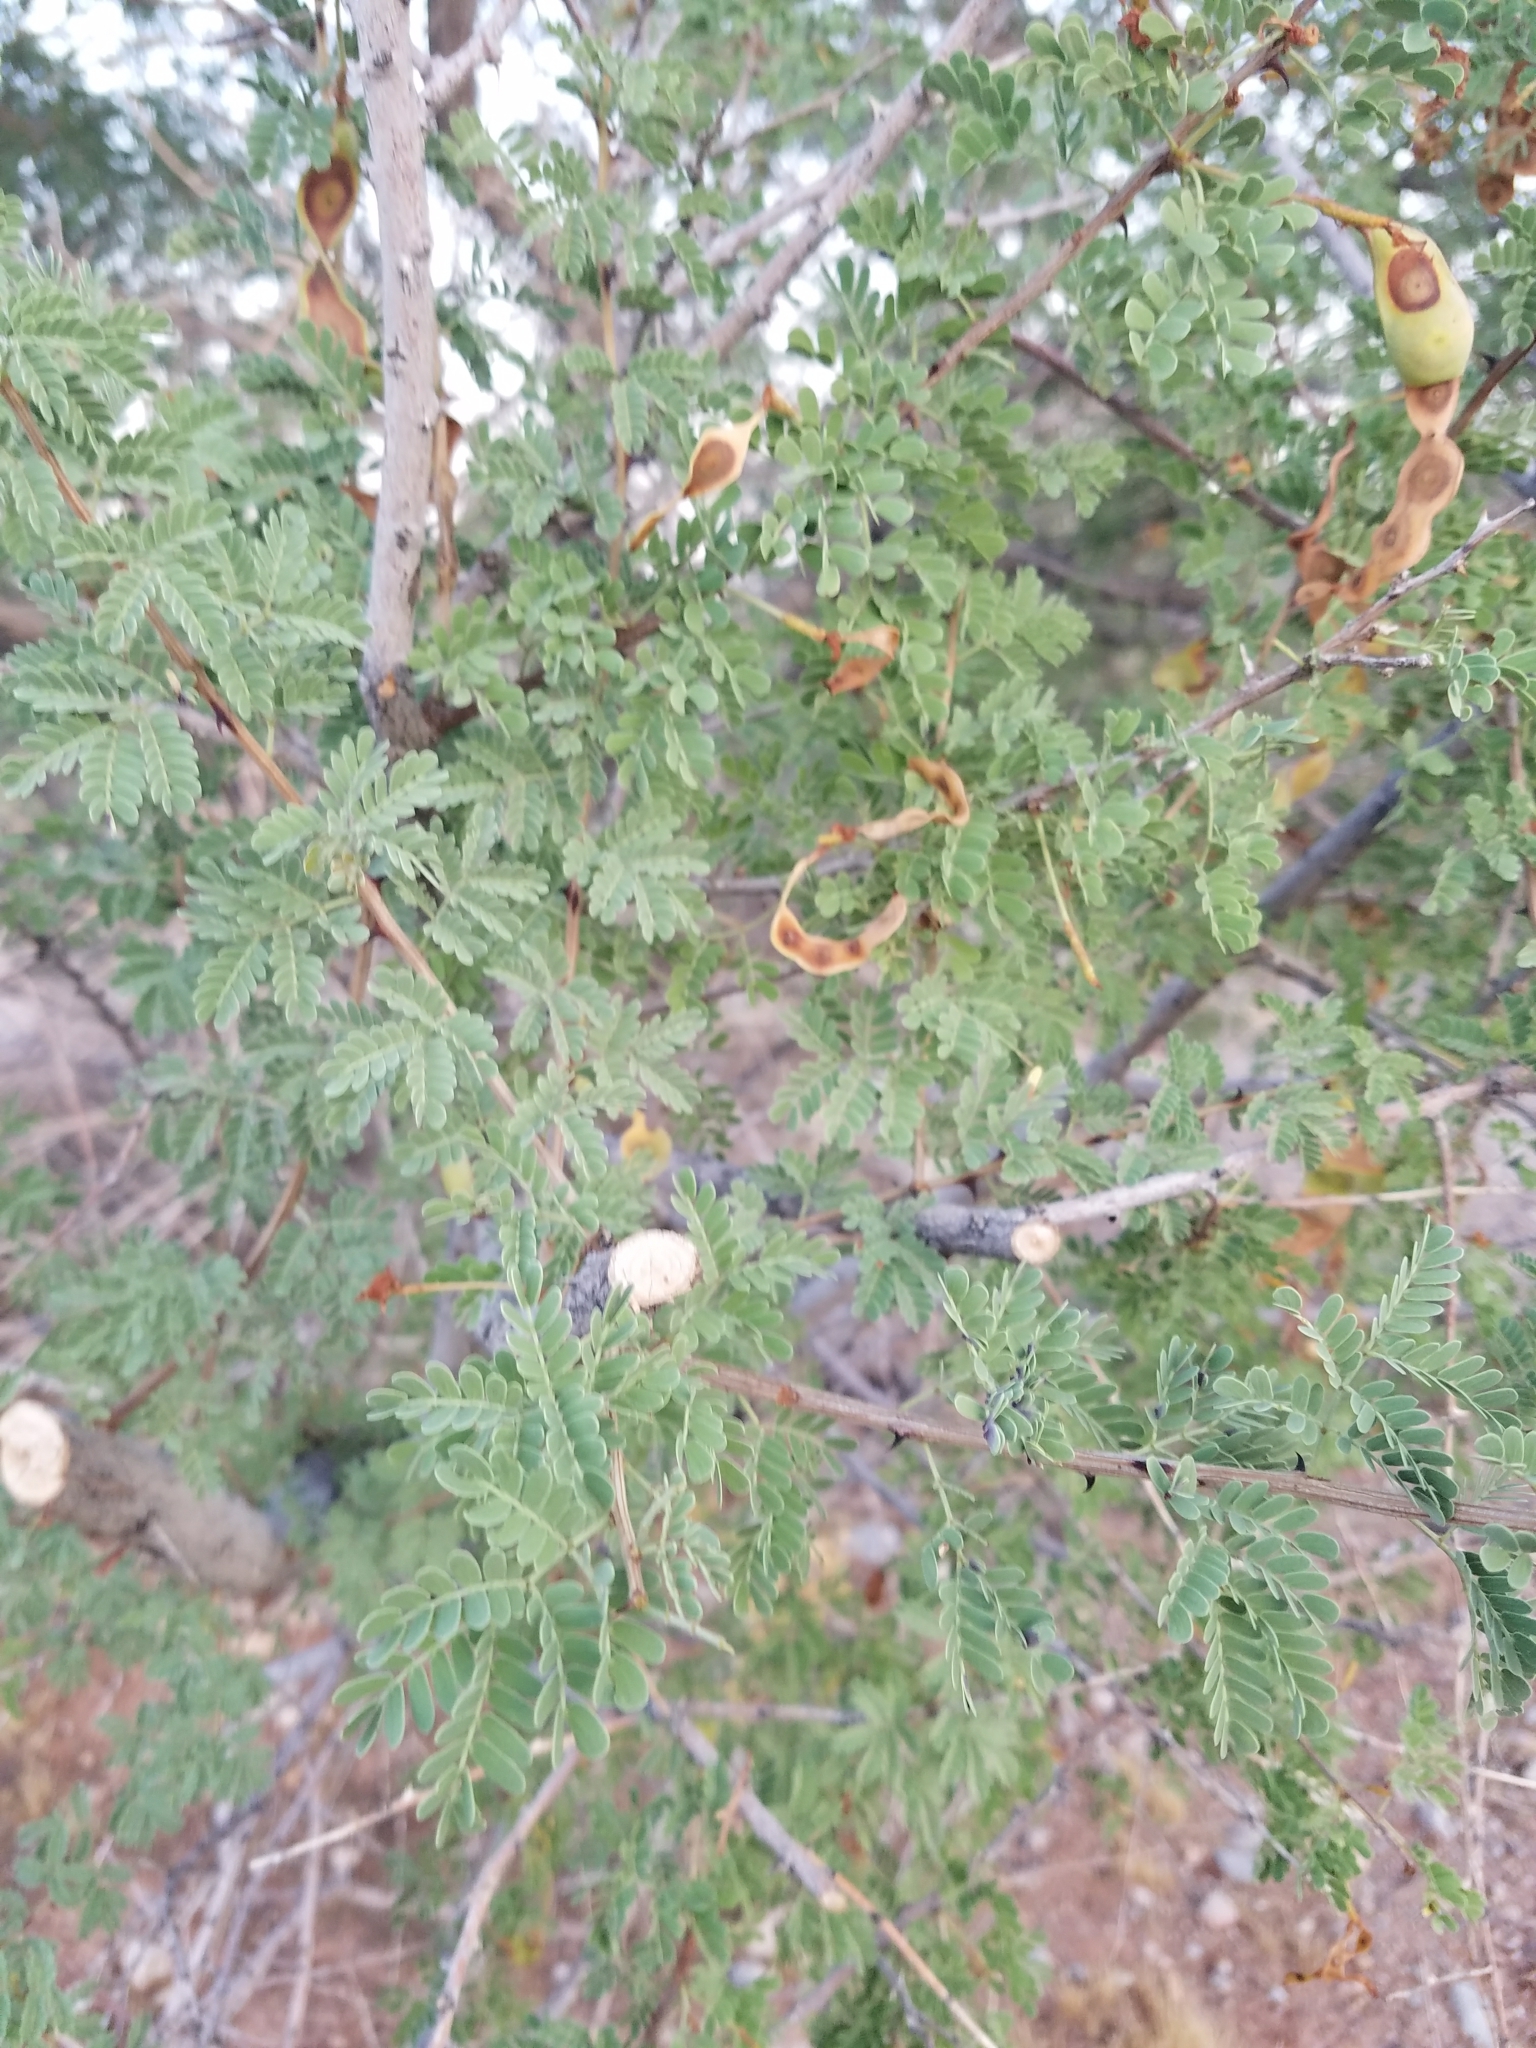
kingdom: Plantae
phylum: Tracheophyta
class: Magnoliopsida
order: Fabales
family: Fabaceae
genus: Senegalia
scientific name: Senegalia greggii
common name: Texas-mimosa
